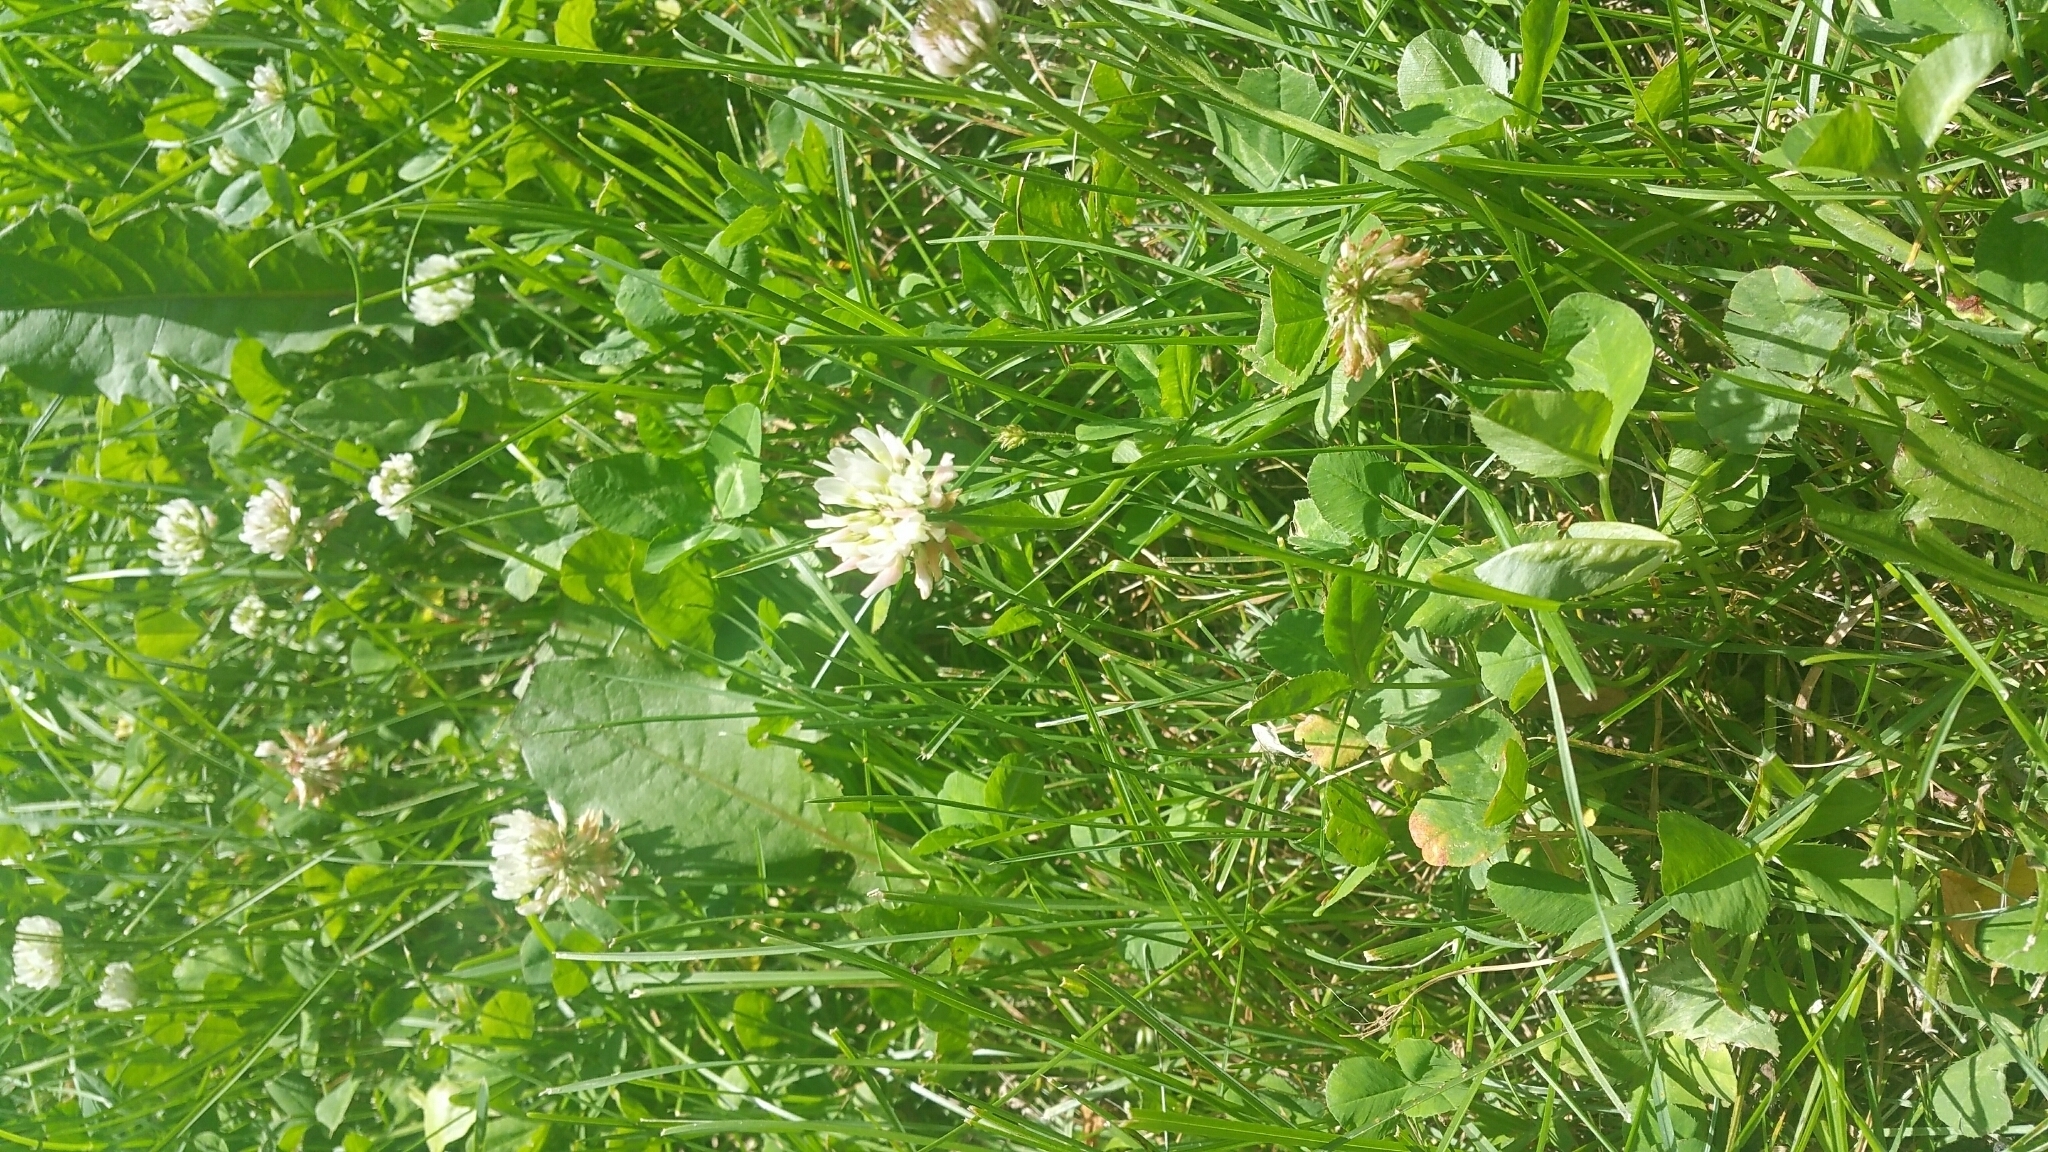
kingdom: Plantae
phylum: Tracheophyta
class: Magnoliopsida
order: Fabales
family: Fabaceae
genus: Trifolium
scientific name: Trifolium repens
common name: White clover
